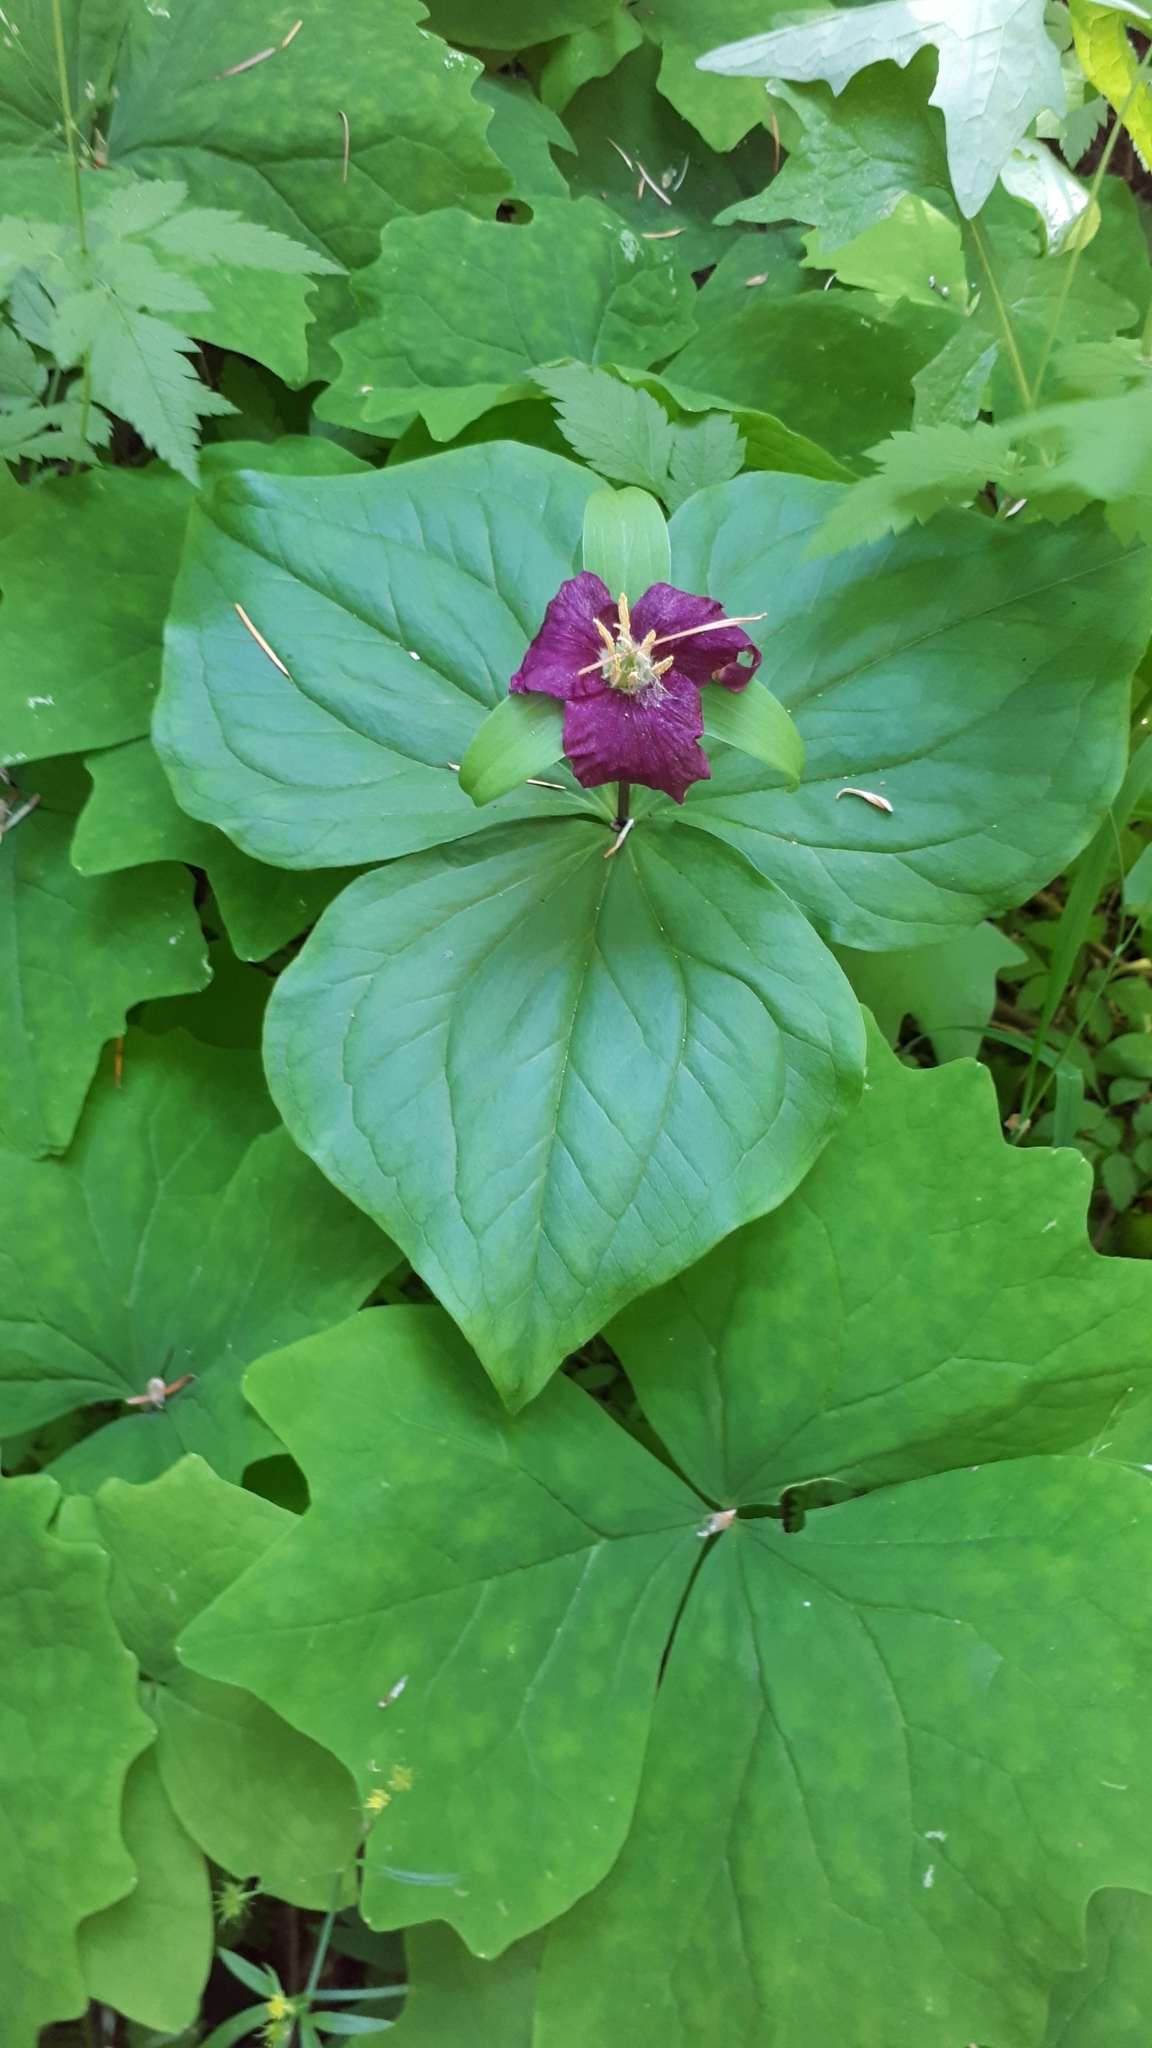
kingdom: Plantae
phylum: Tracheophyta
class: Liliopsida
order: Liliales
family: Melanthiaceae
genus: Trillium
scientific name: Trillium ovatum
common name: Pacific trillium
